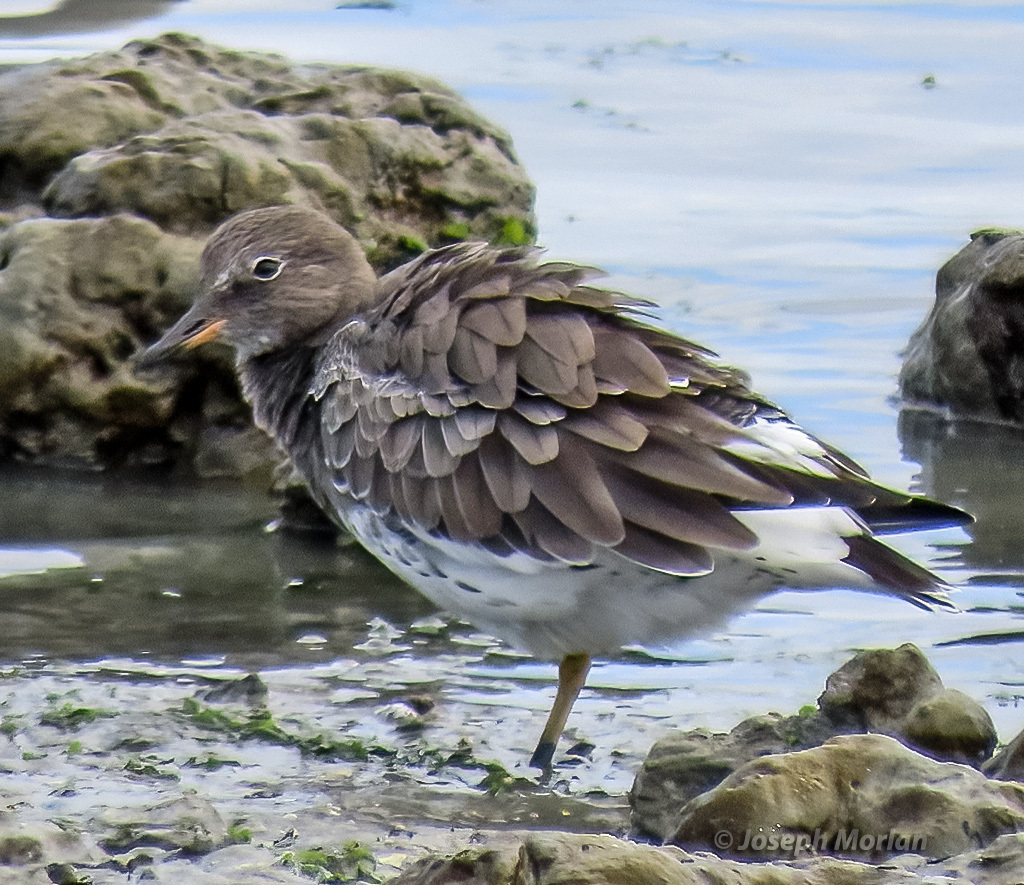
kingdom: Animalia
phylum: Chordata
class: Aves
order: Charadriiformes
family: Scolopacidae
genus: Calidris
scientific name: Calidris virgata
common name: Surfbird
